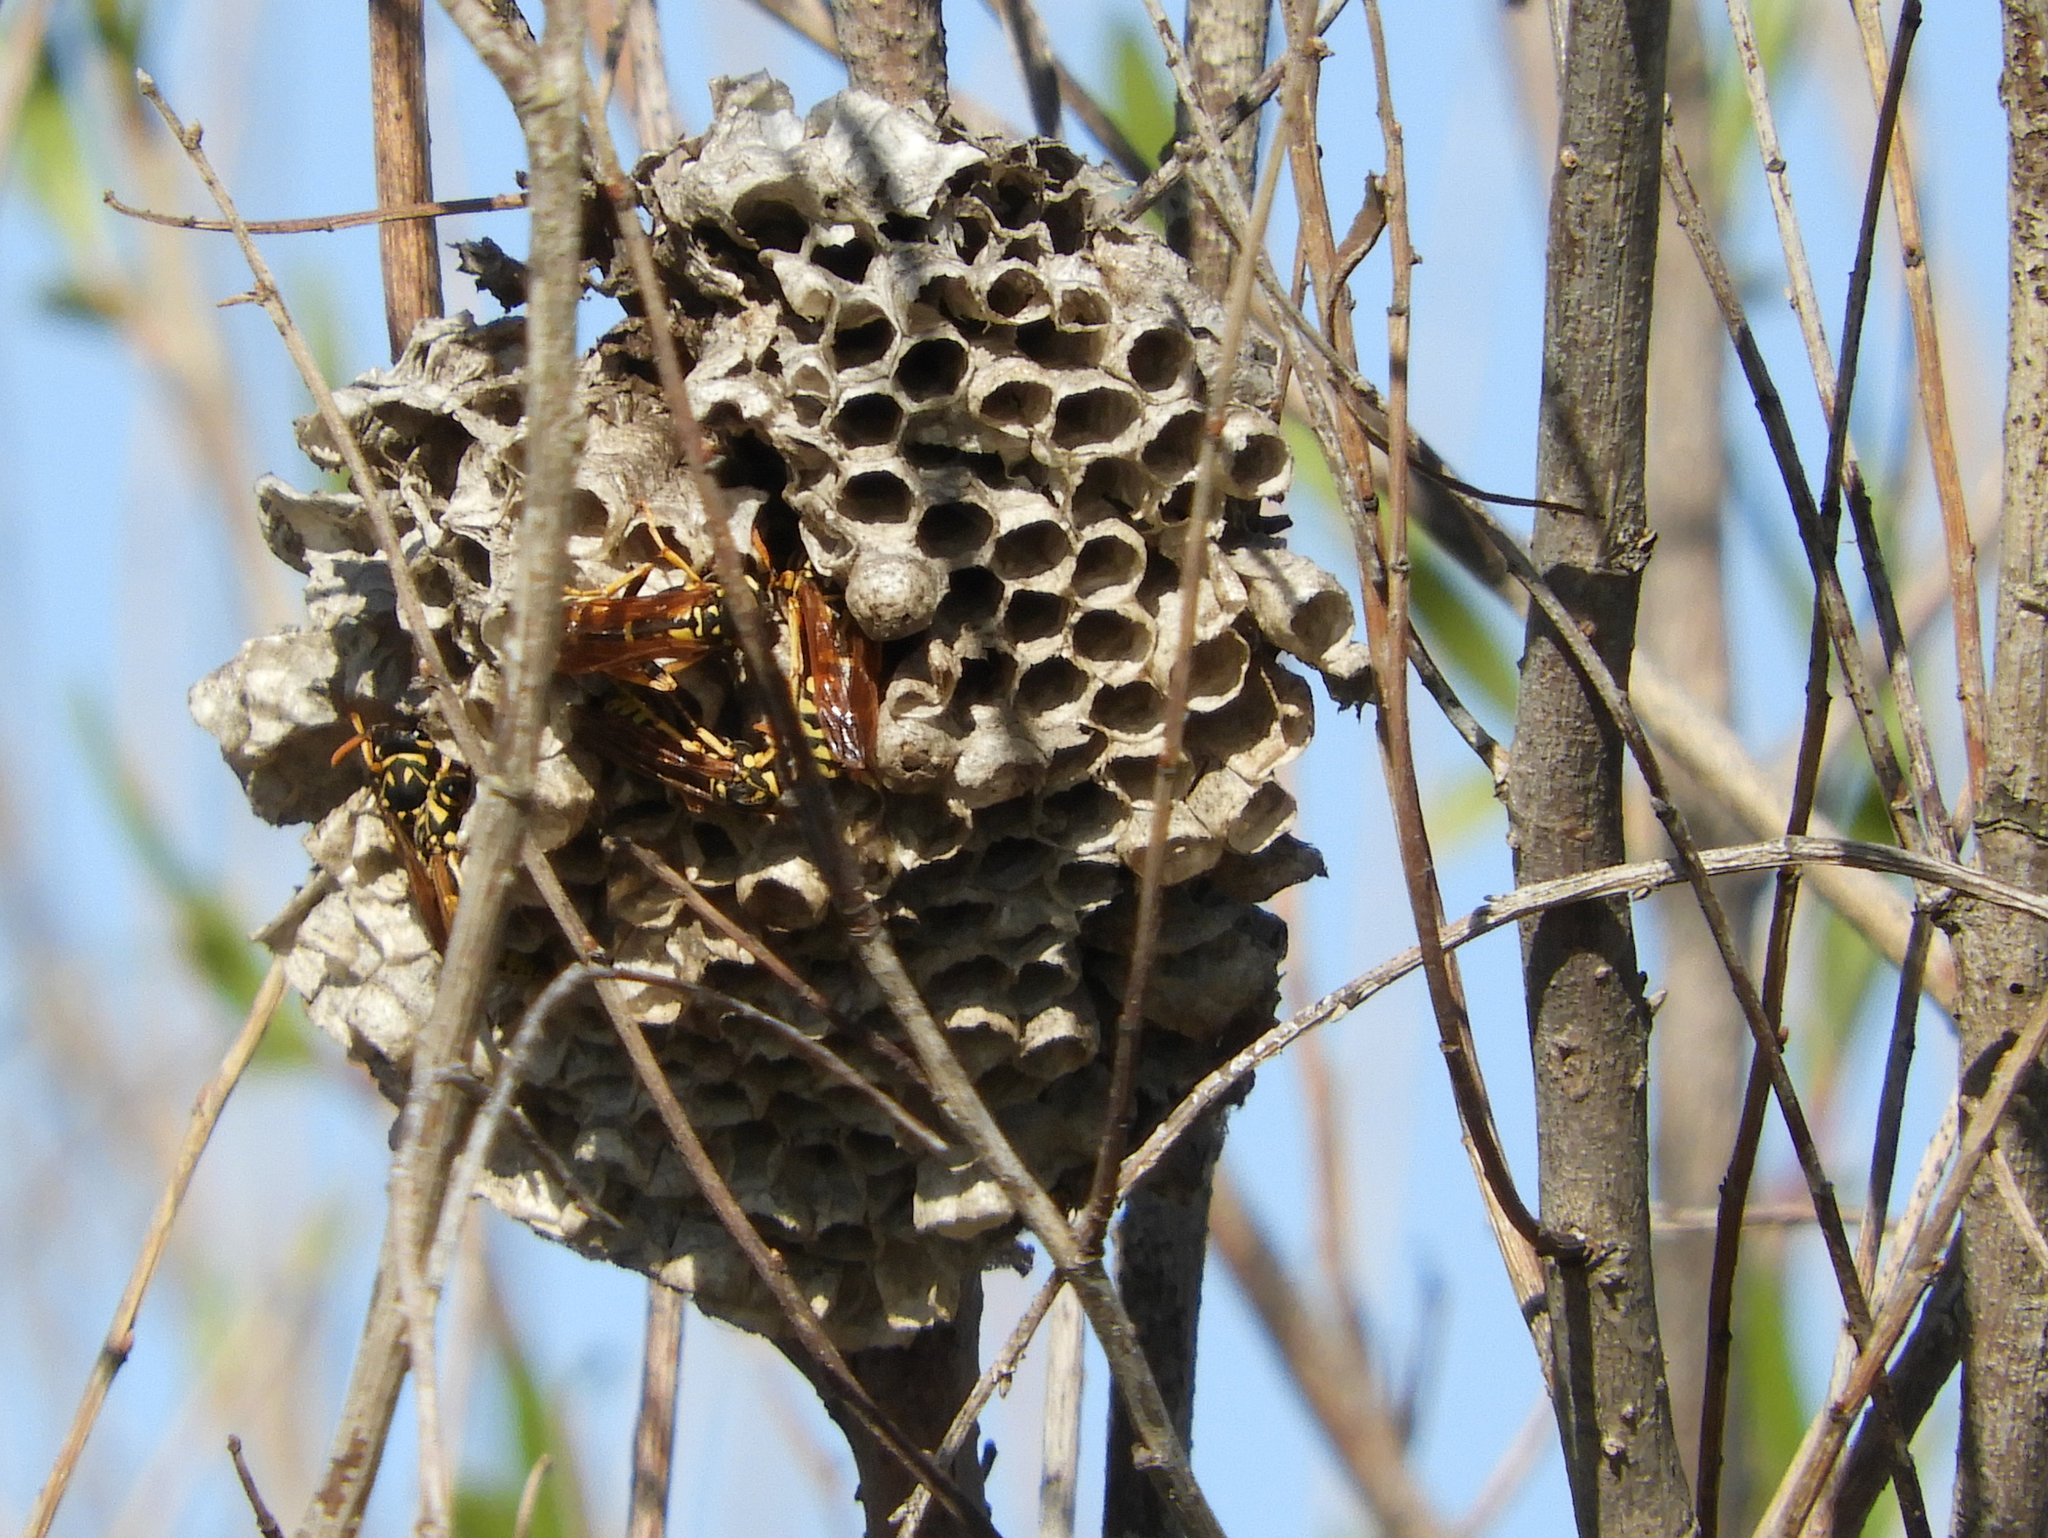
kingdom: Animalia
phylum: Arthropoda
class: Insecta
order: Hymenoptera
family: Eumenidae
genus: Polistes
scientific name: Polistes dominula
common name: Paper wasp
